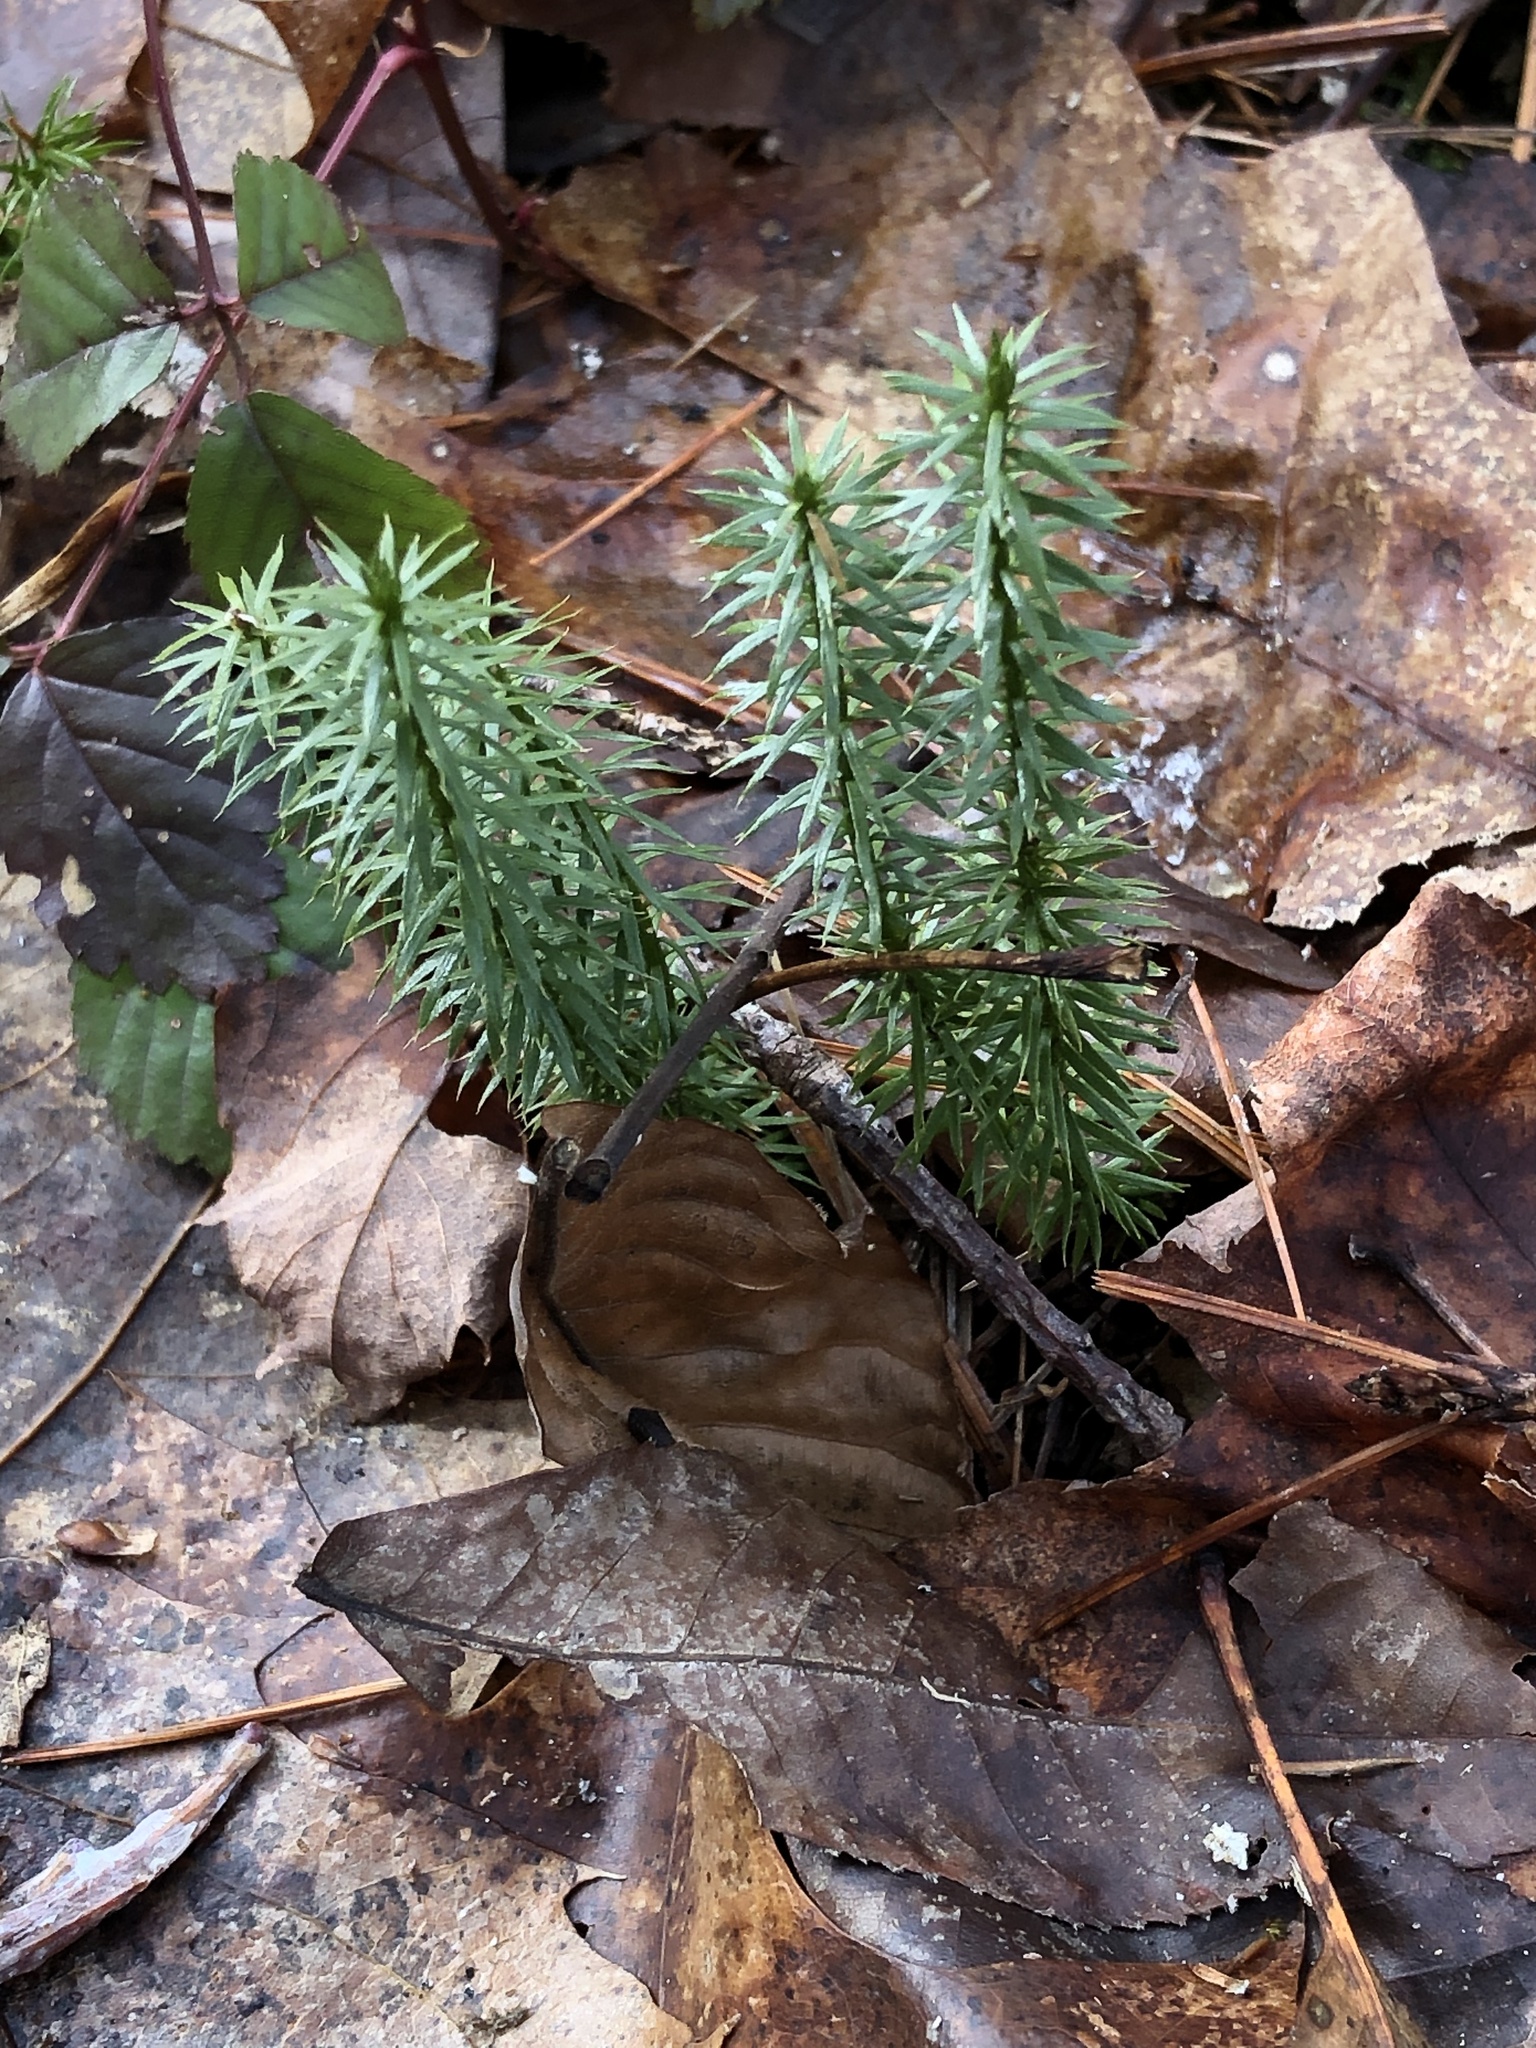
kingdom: Plantae
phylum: Tracheophyta
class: Lycopodiopsida
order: Lycopodiales
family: Lycopodiaceae
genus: Huperzia
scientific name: Huperzia lucidula
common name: Shining clubmoss
